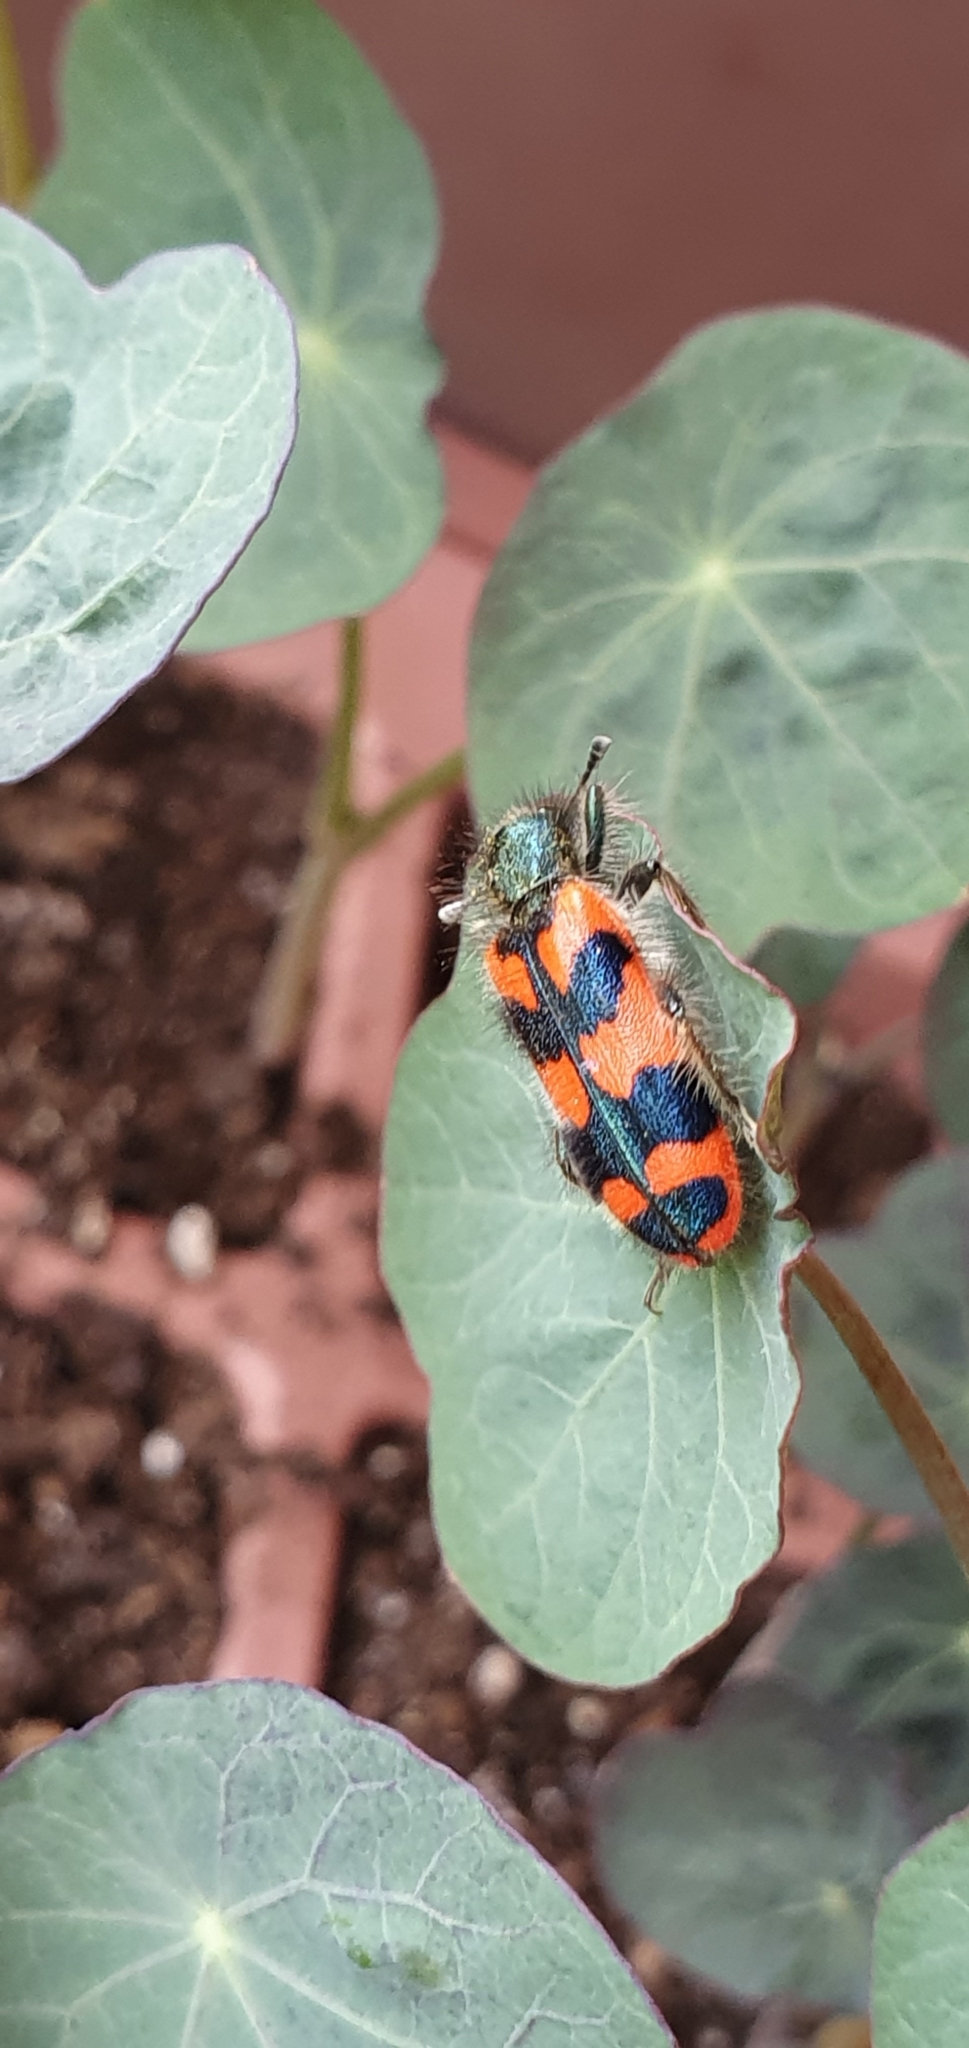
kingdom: Animalia
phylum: Arthropoda
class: Insecta
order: Coleoptera
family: Cleridae
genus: Trichodes
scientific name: Trichodes alvearius
